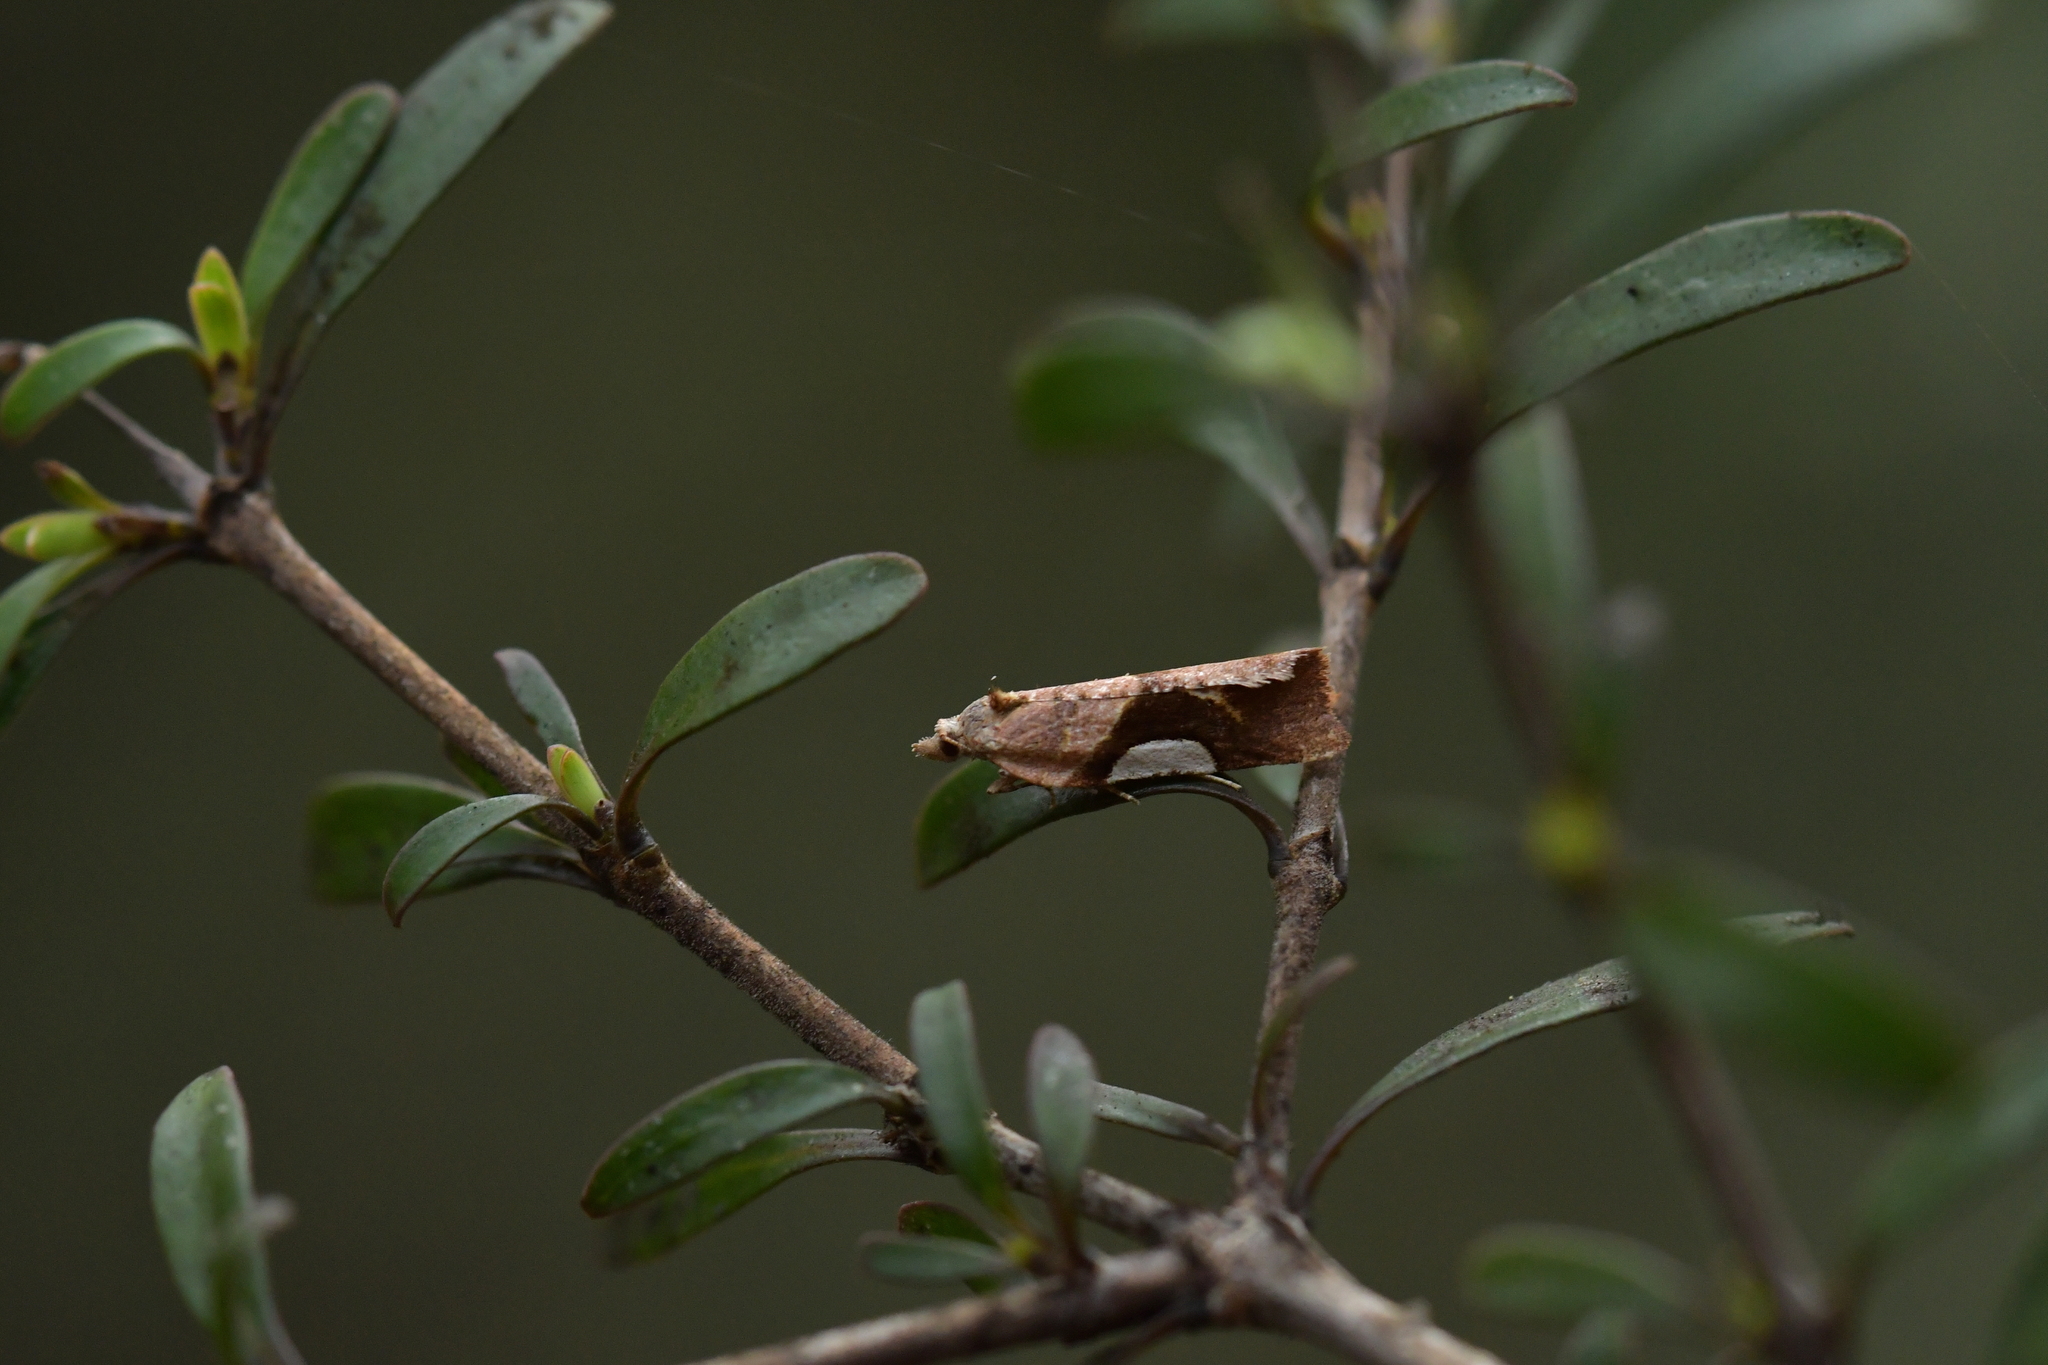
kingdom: Animalia
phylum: Arthropoda
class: Insecta
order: Lepidoptera
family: Tortricidae
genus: Pyrgotis
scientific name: Pyrgotis plagiatana
